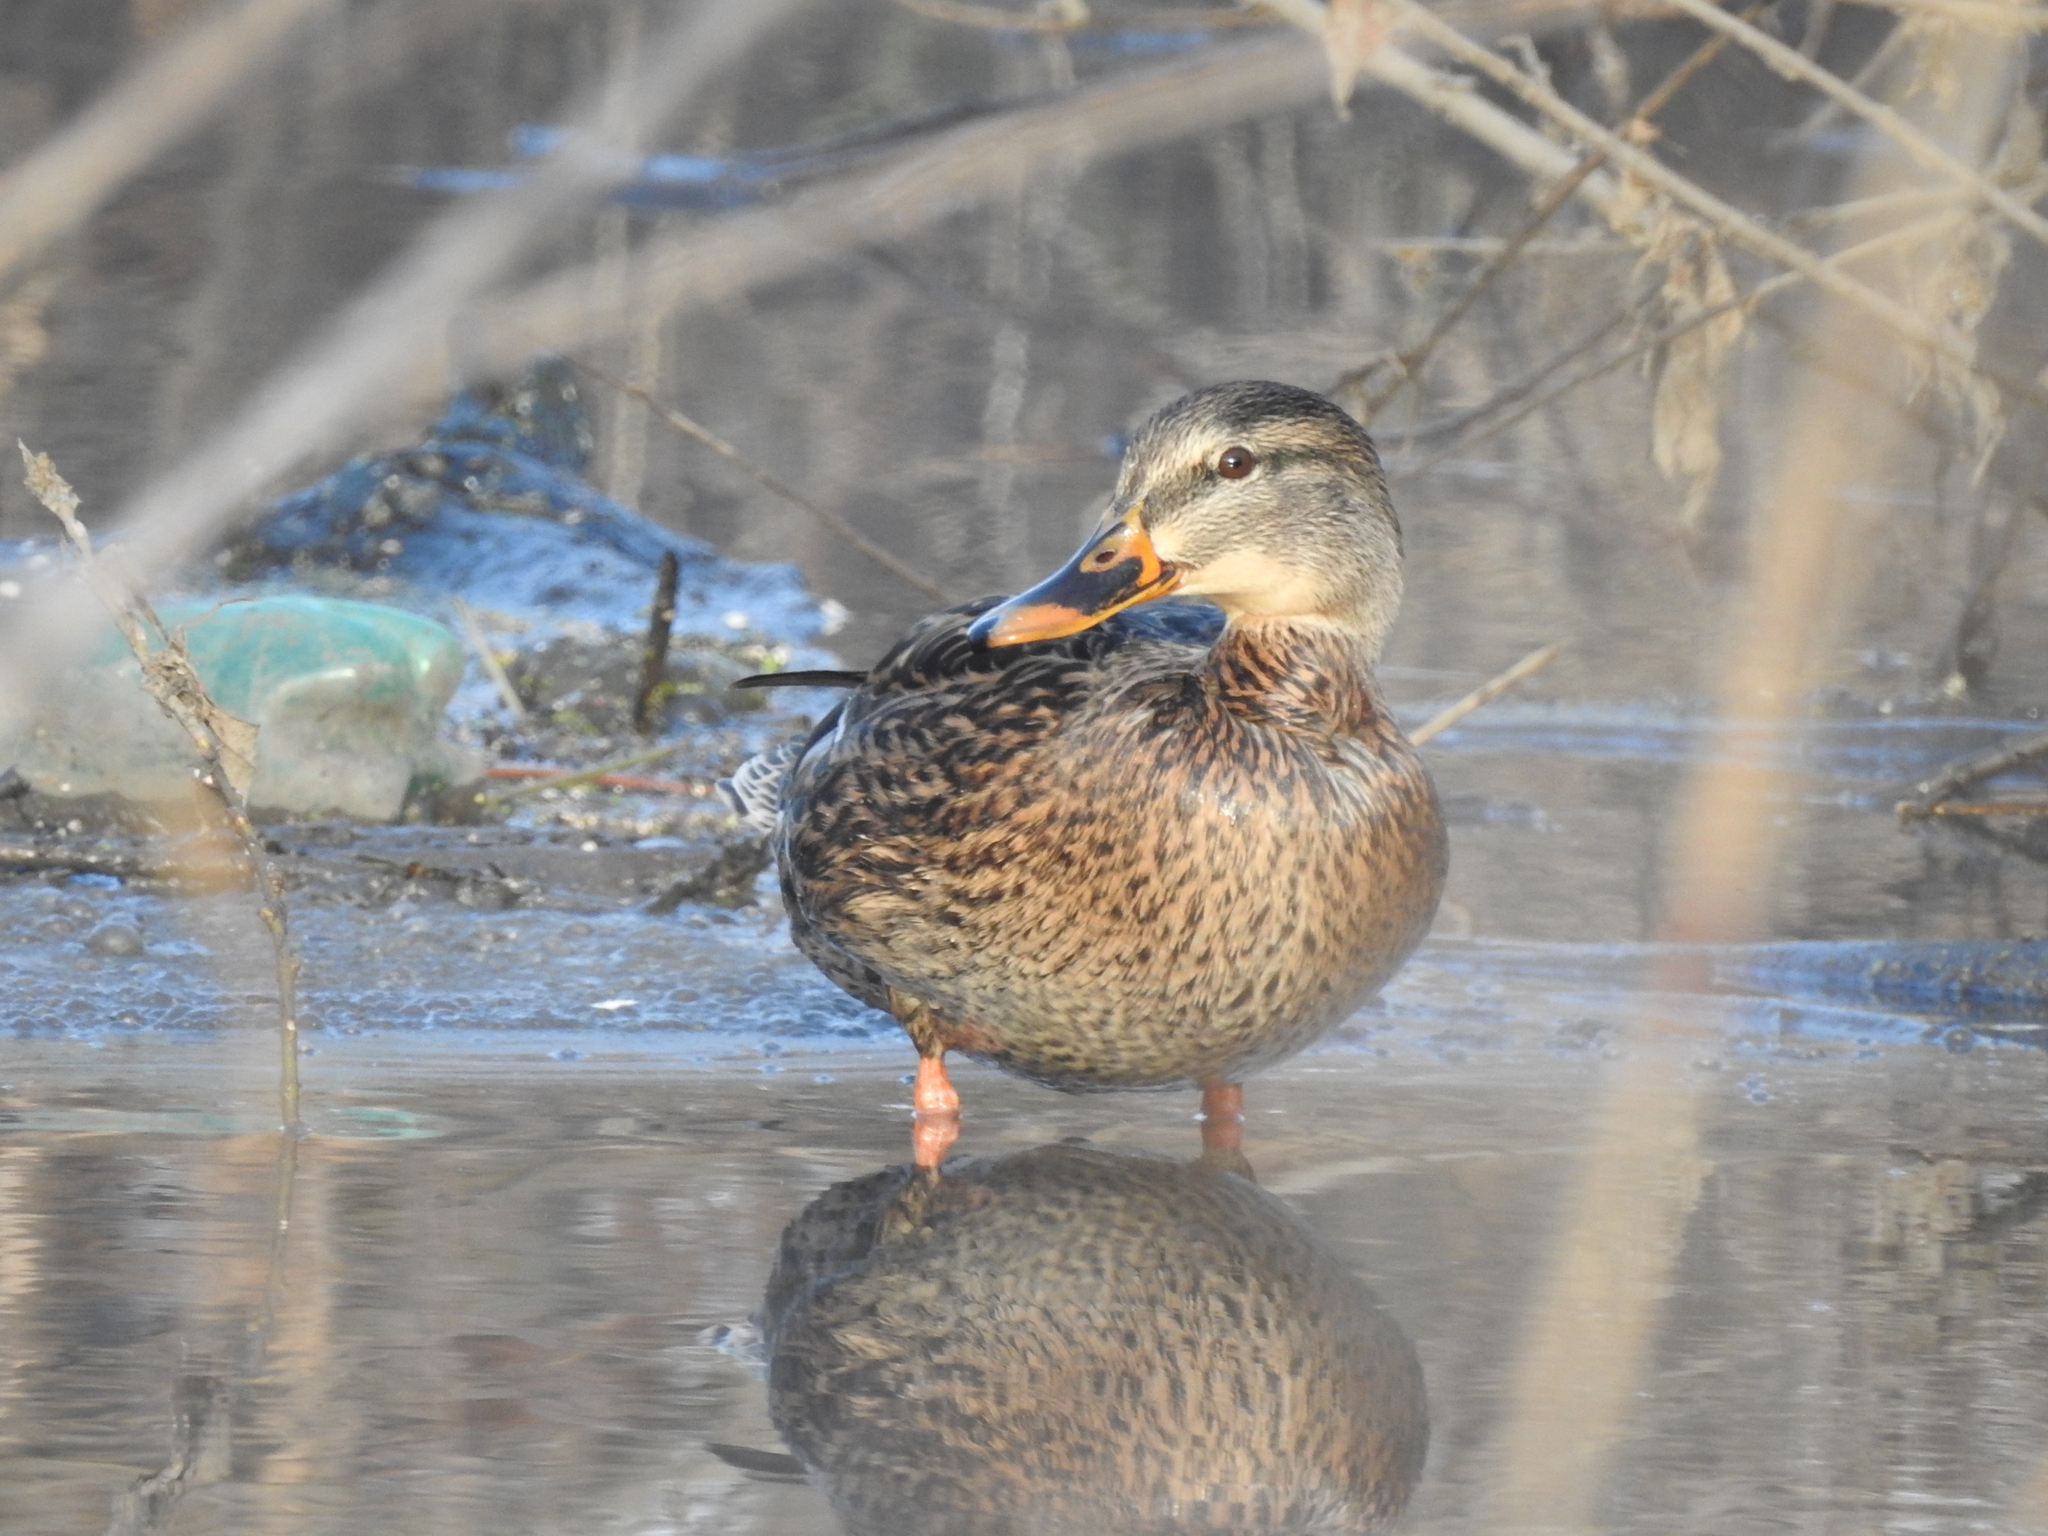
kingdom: Animalia
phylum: Chordata
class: Aves
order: Anseriformes
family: Anatidae
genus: Anas
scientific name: Anas platyrhynchos
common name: Mallard
